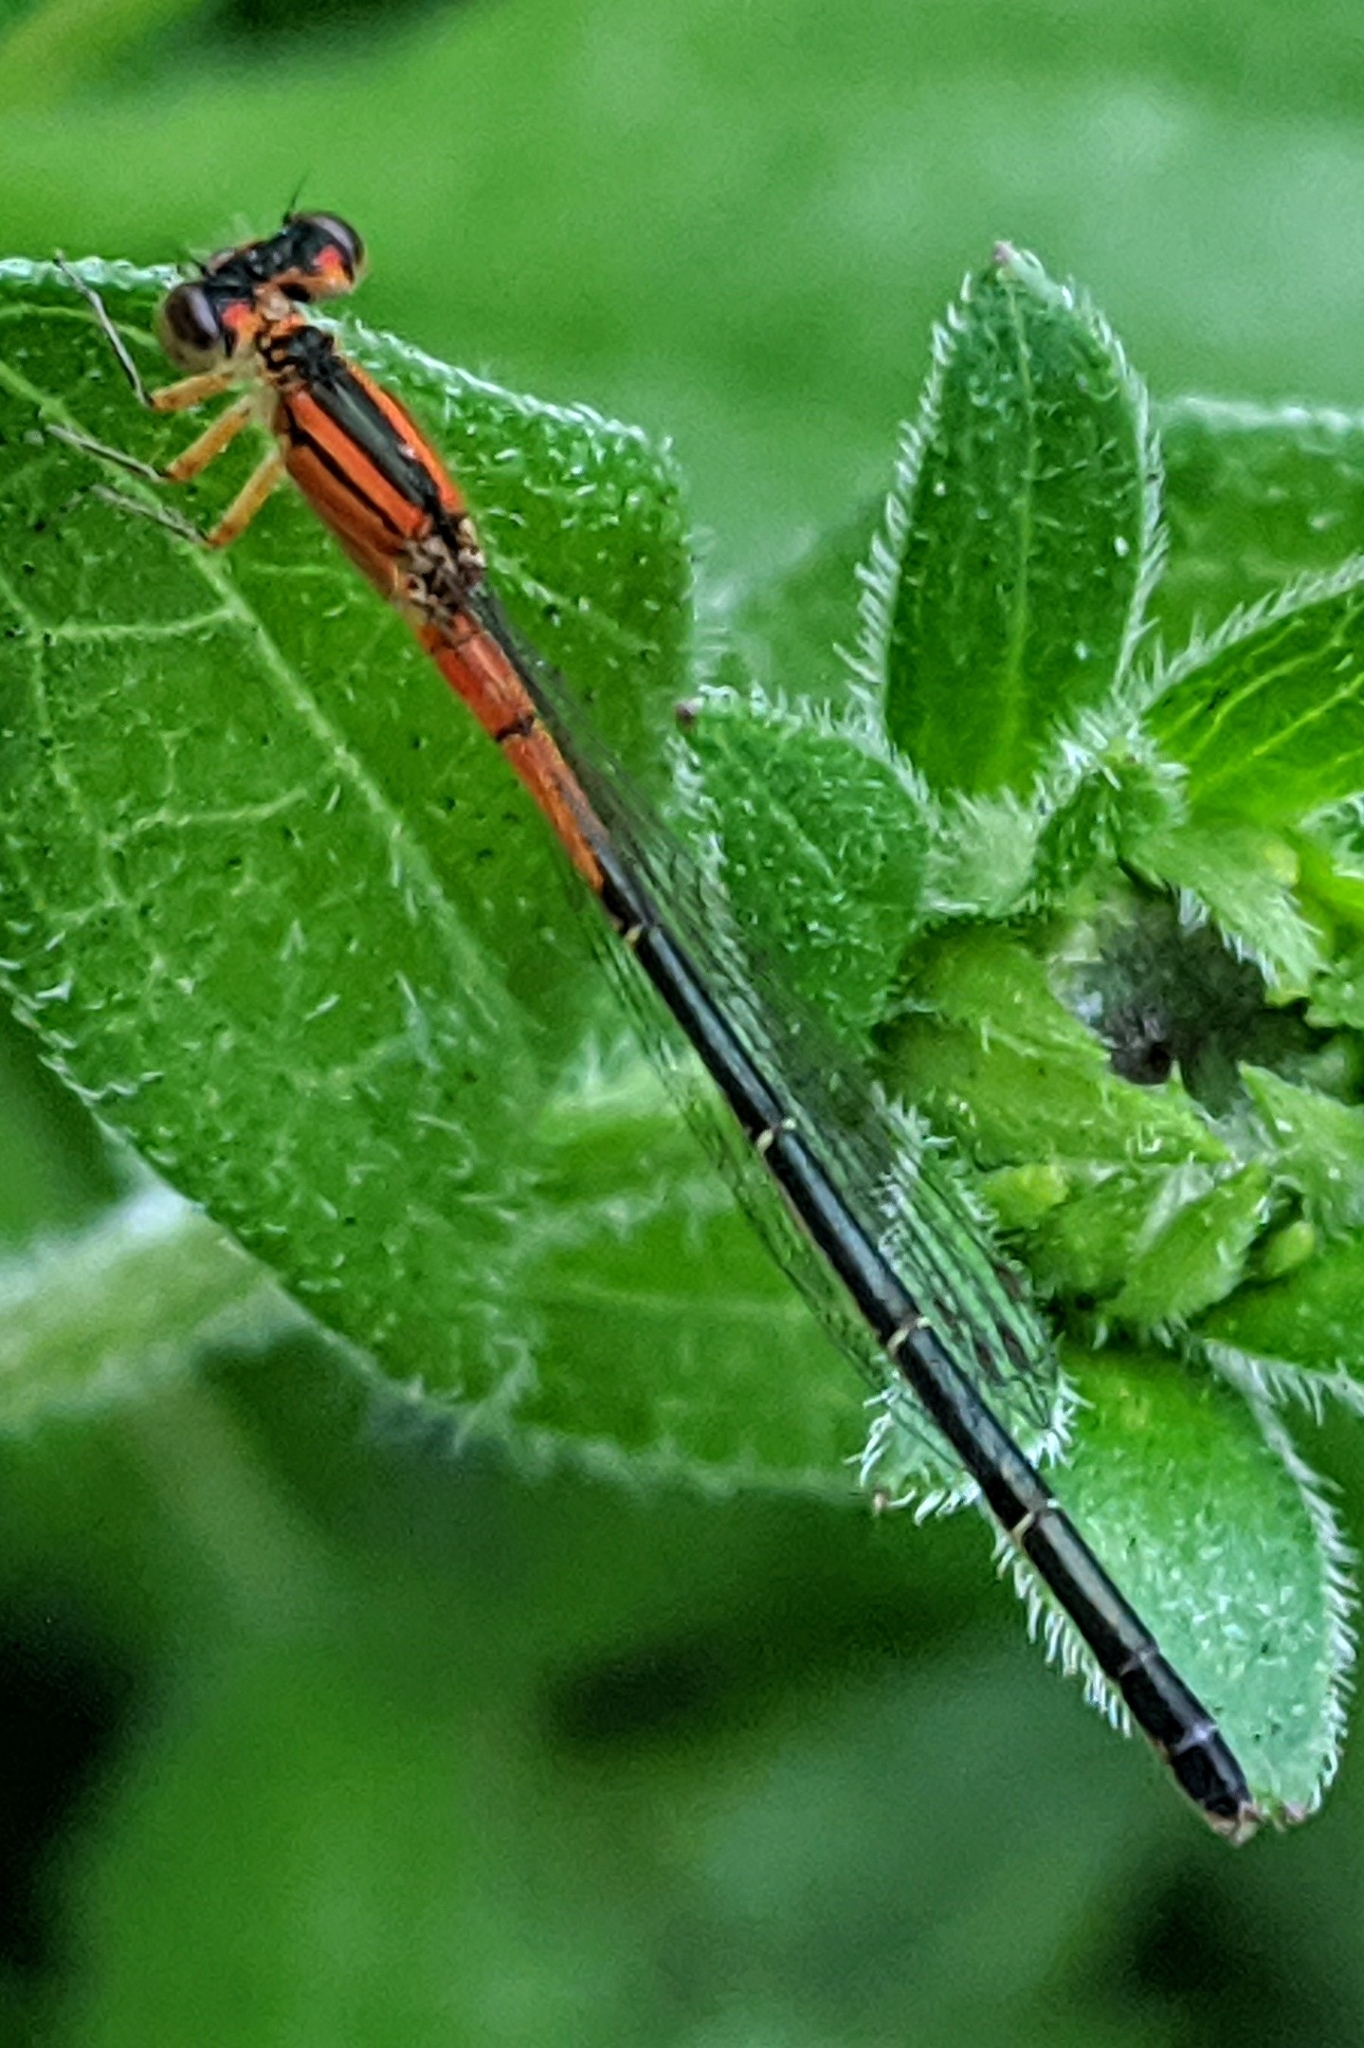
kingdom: Animalia
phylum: Arthropoda
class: Insecta
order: Odonata
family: Coenagrionidae
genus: Ischnura
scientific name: Ischnura verticalis
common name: Eastern forktail
